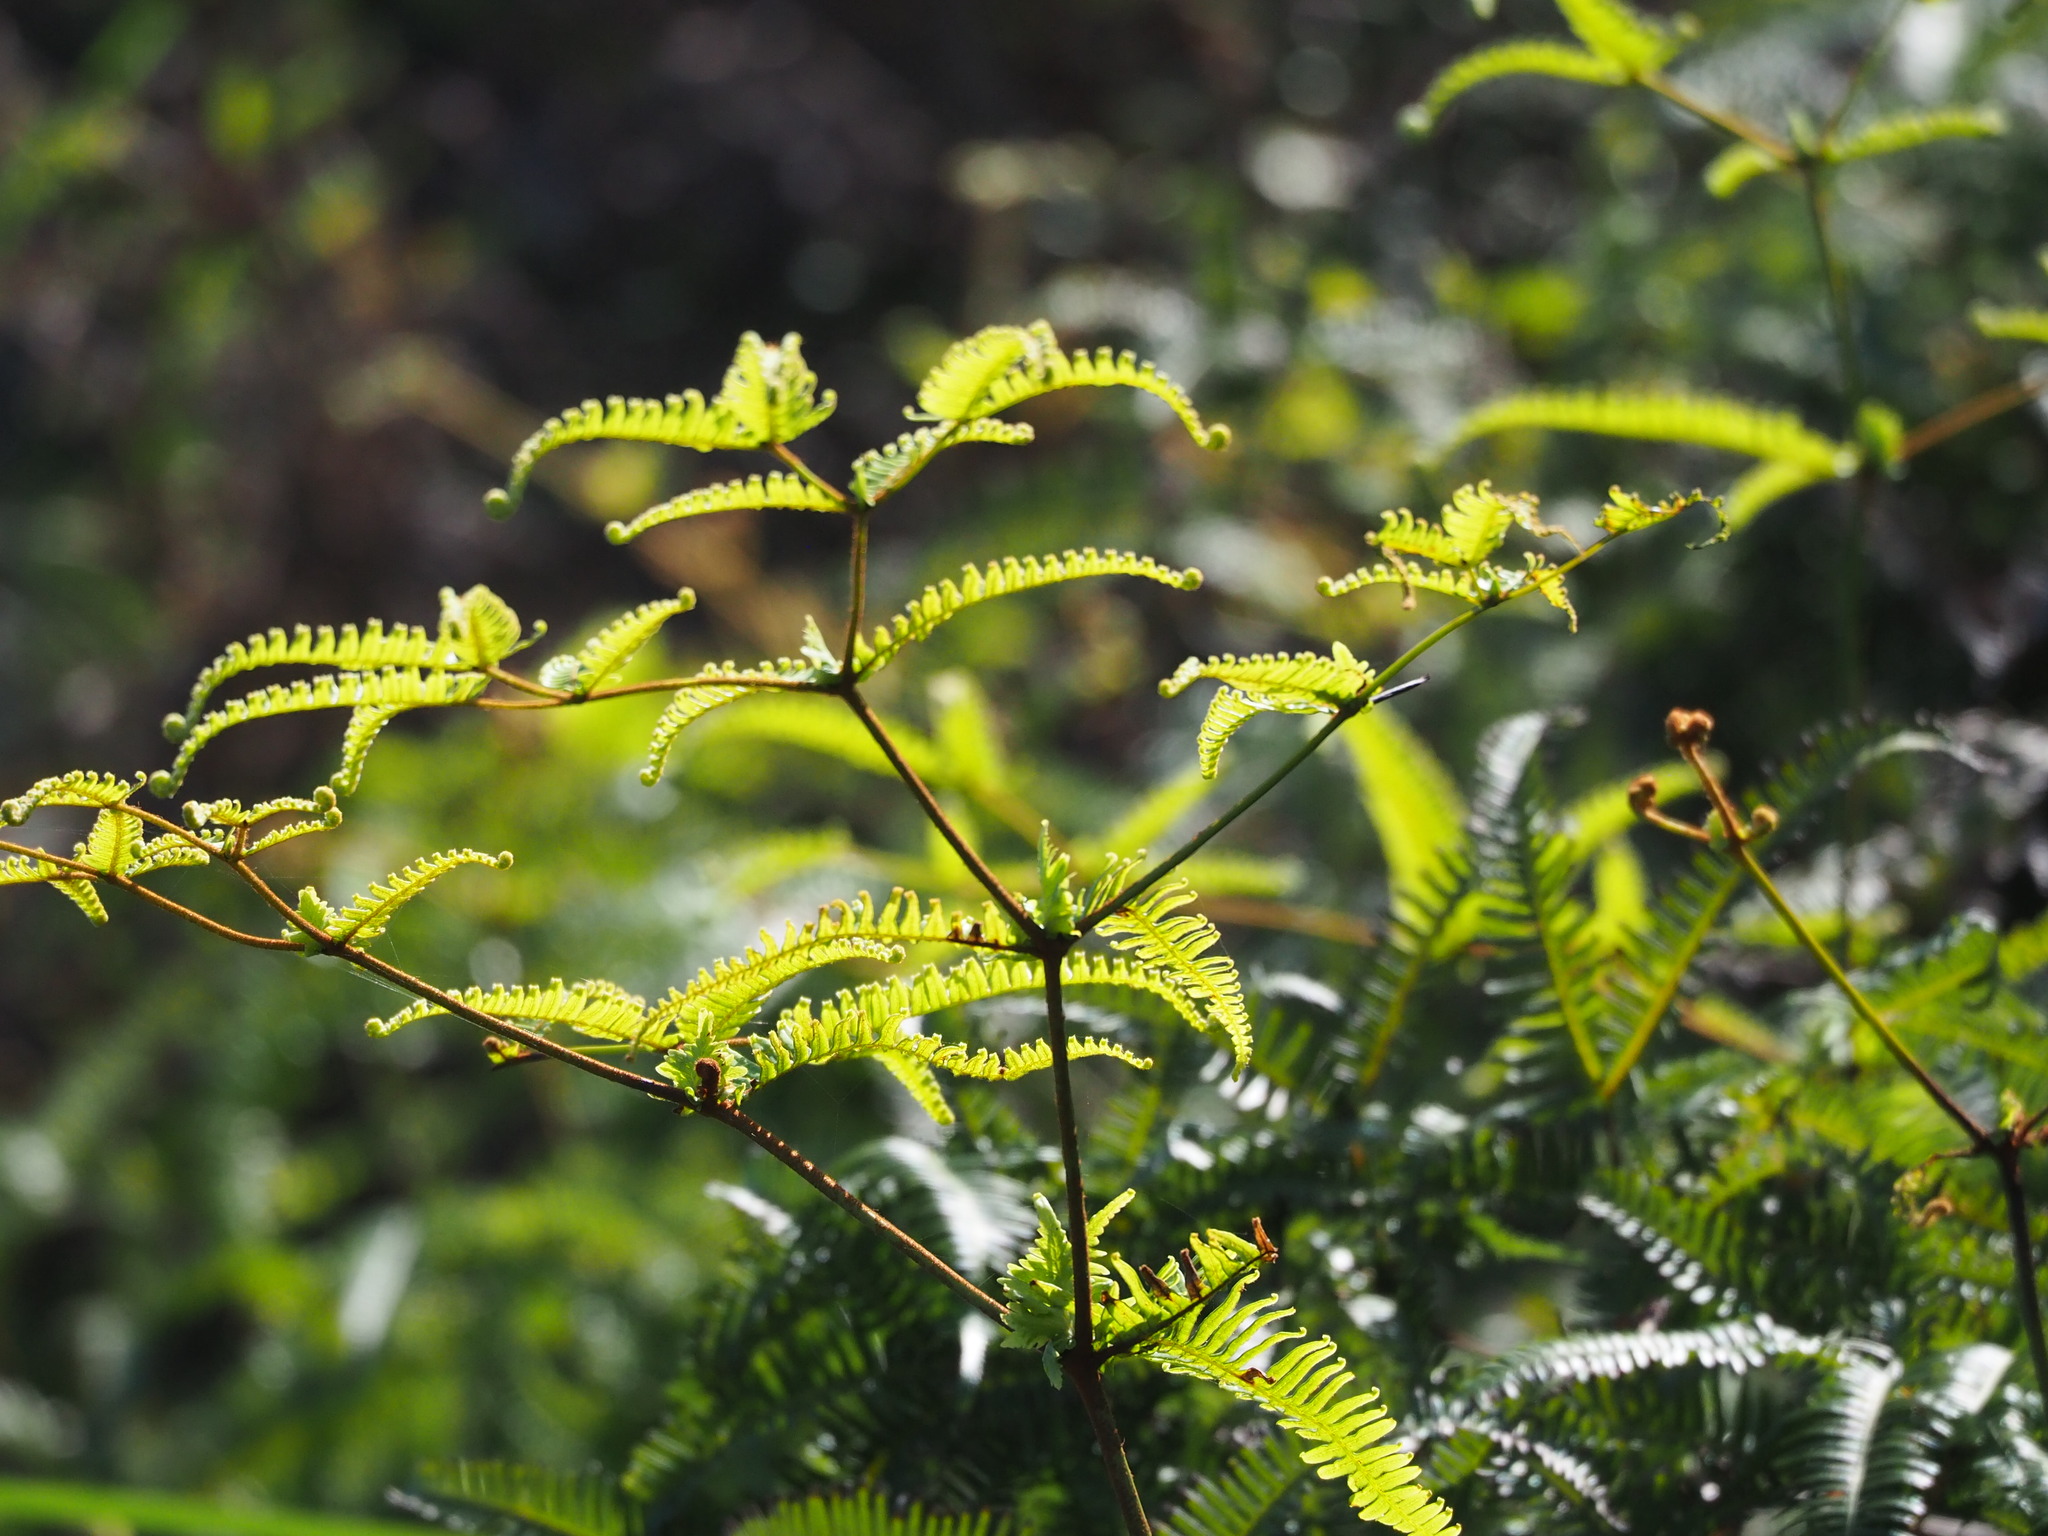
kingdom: Plantae
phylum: Tracheophyta
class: Polypodiopsida
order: Gleicheniales
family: Gleicheniaceae
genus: Dicranopteris
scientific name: Dicranopteris linearis
